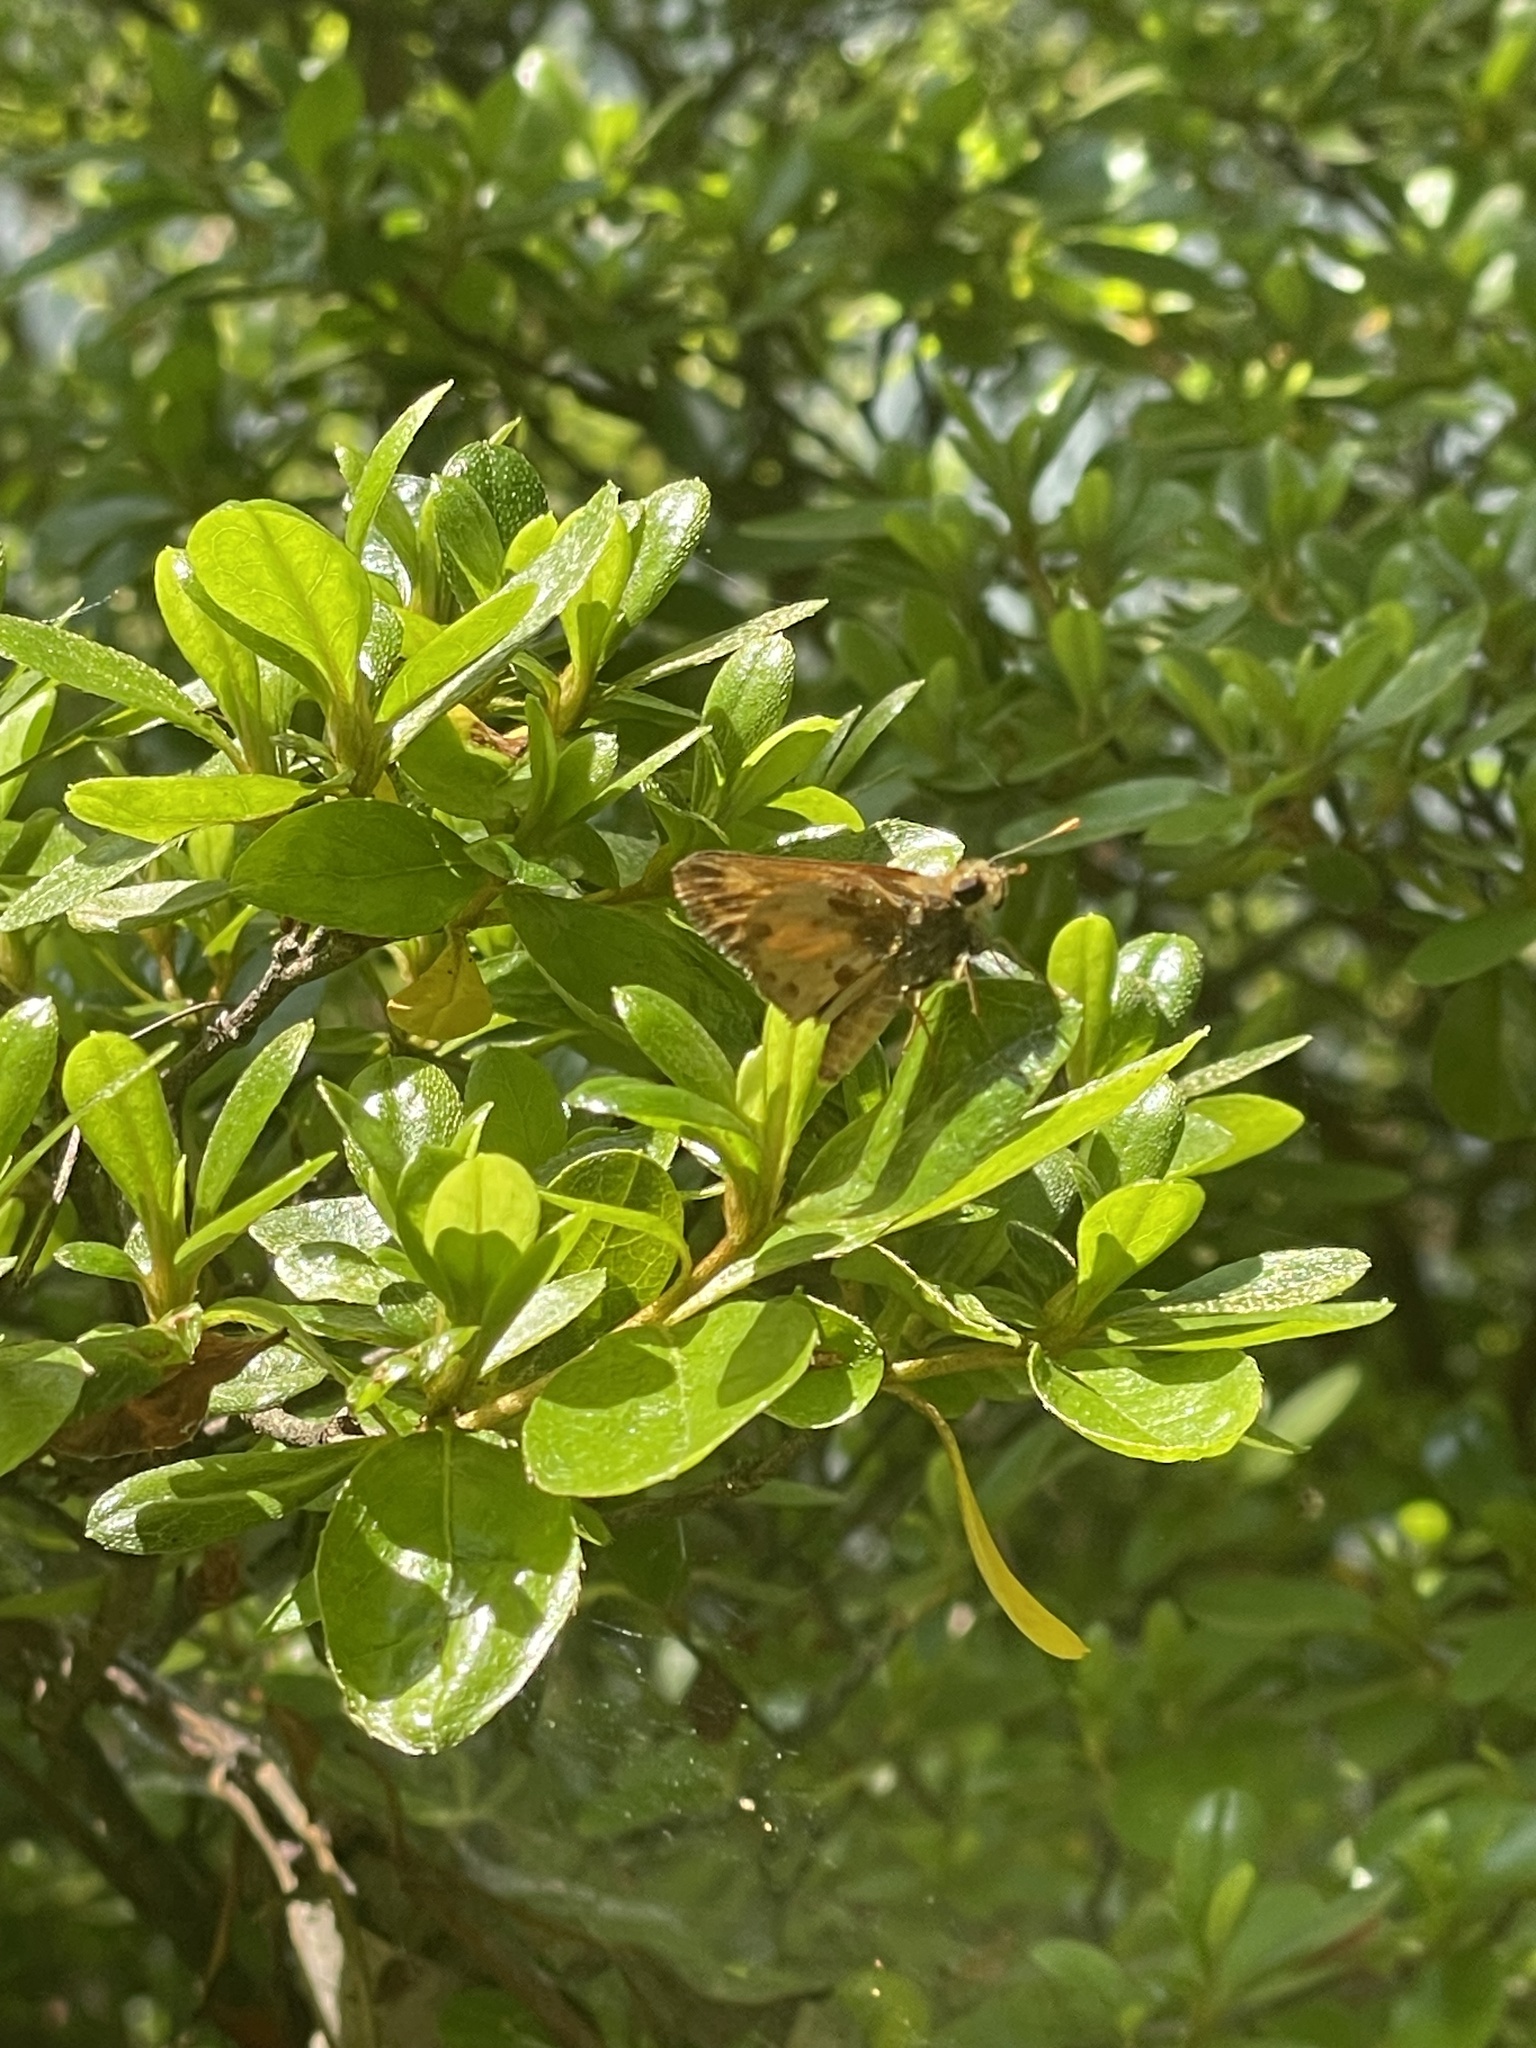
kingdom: Animalia
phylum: Arthropoda
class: Insecta
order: Lepidoptera
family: Hesperiidae
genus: Lon
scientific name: Lon zabulon
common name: Zabulon skipper
